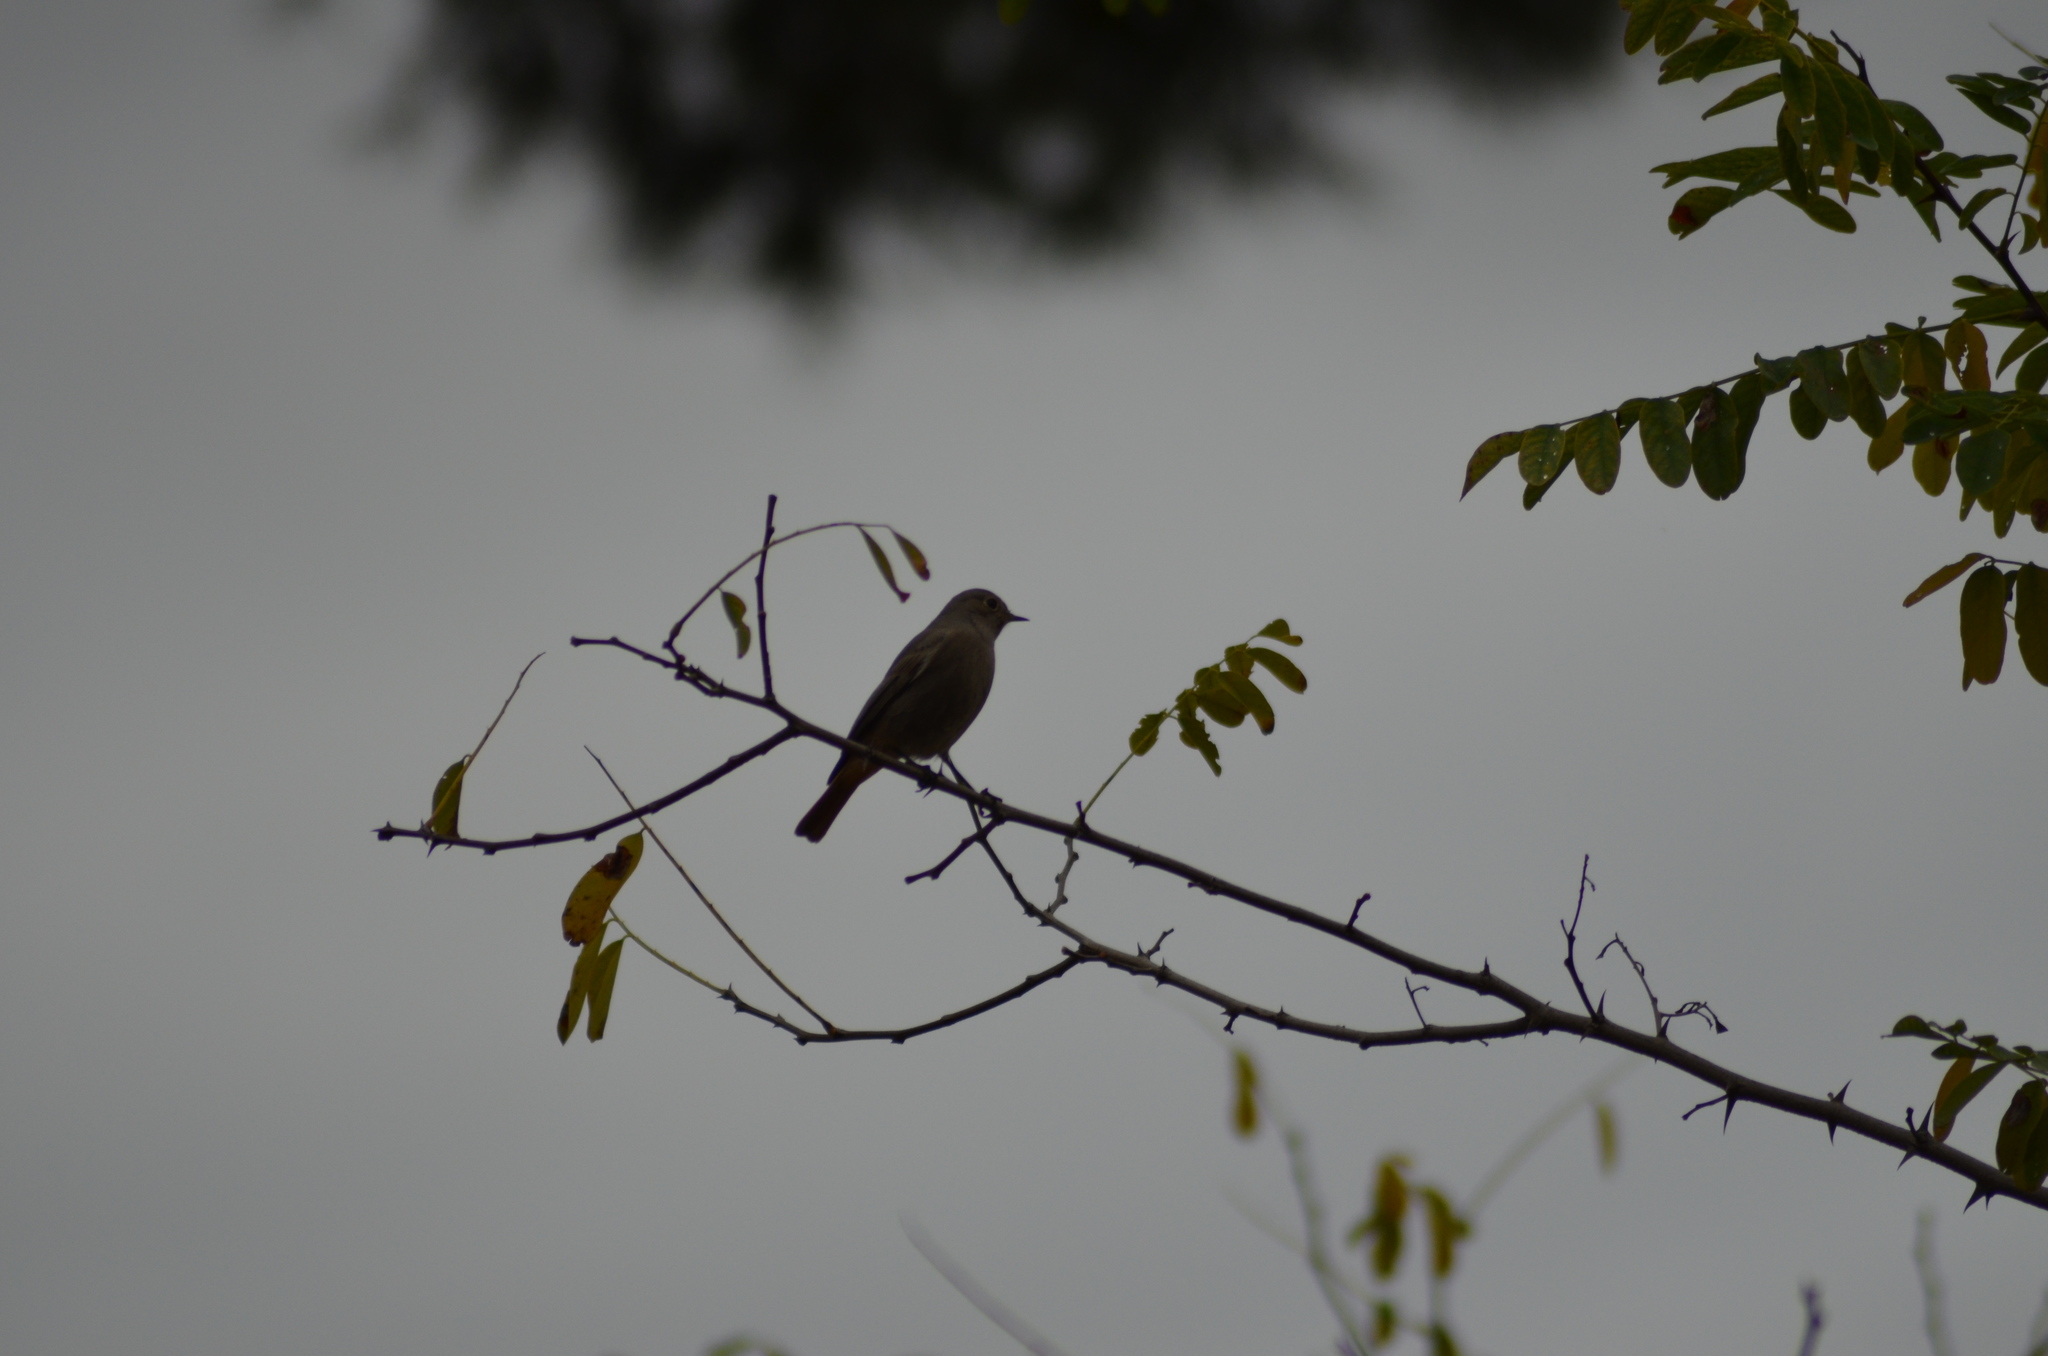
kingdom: Animalia
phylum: Chordata
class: Aves
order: Passeriformes
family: Muscicapidae
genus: Phoenicurus
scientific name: Phoenicurus ochruros
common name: Black redstart
